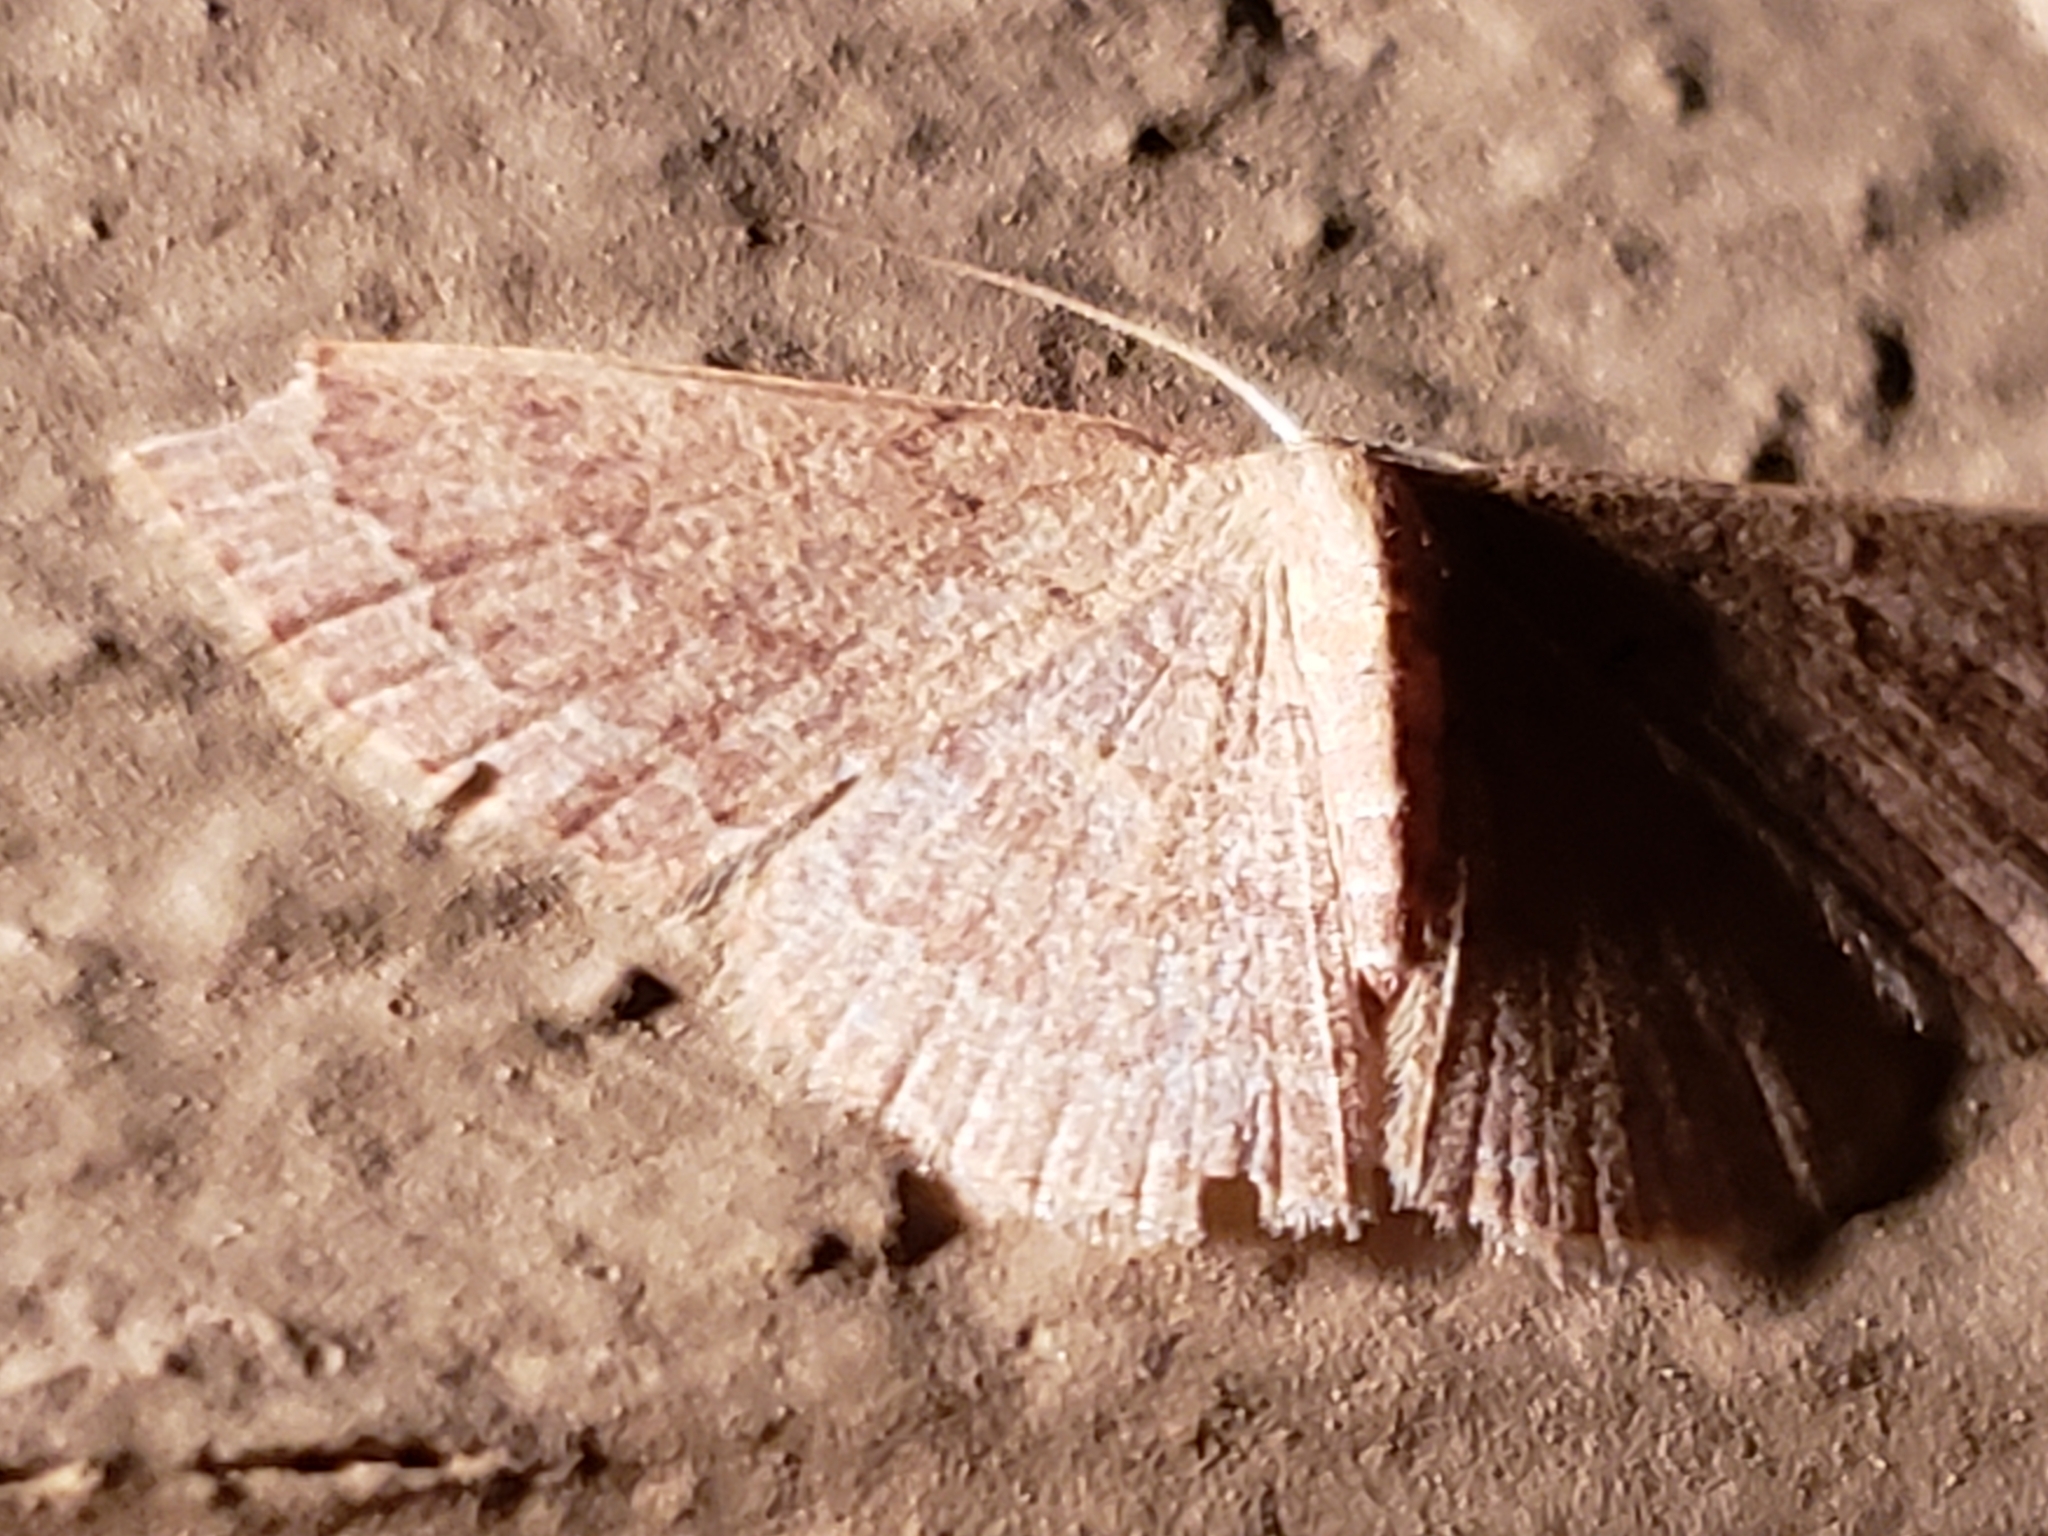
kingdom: Animalia
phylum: Arthropoda
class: Insecta
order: Lepidoptera
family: Geometridae
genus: Pleuroprucha
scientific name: Pleuroprucha insulsaria
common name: Common tan wave
